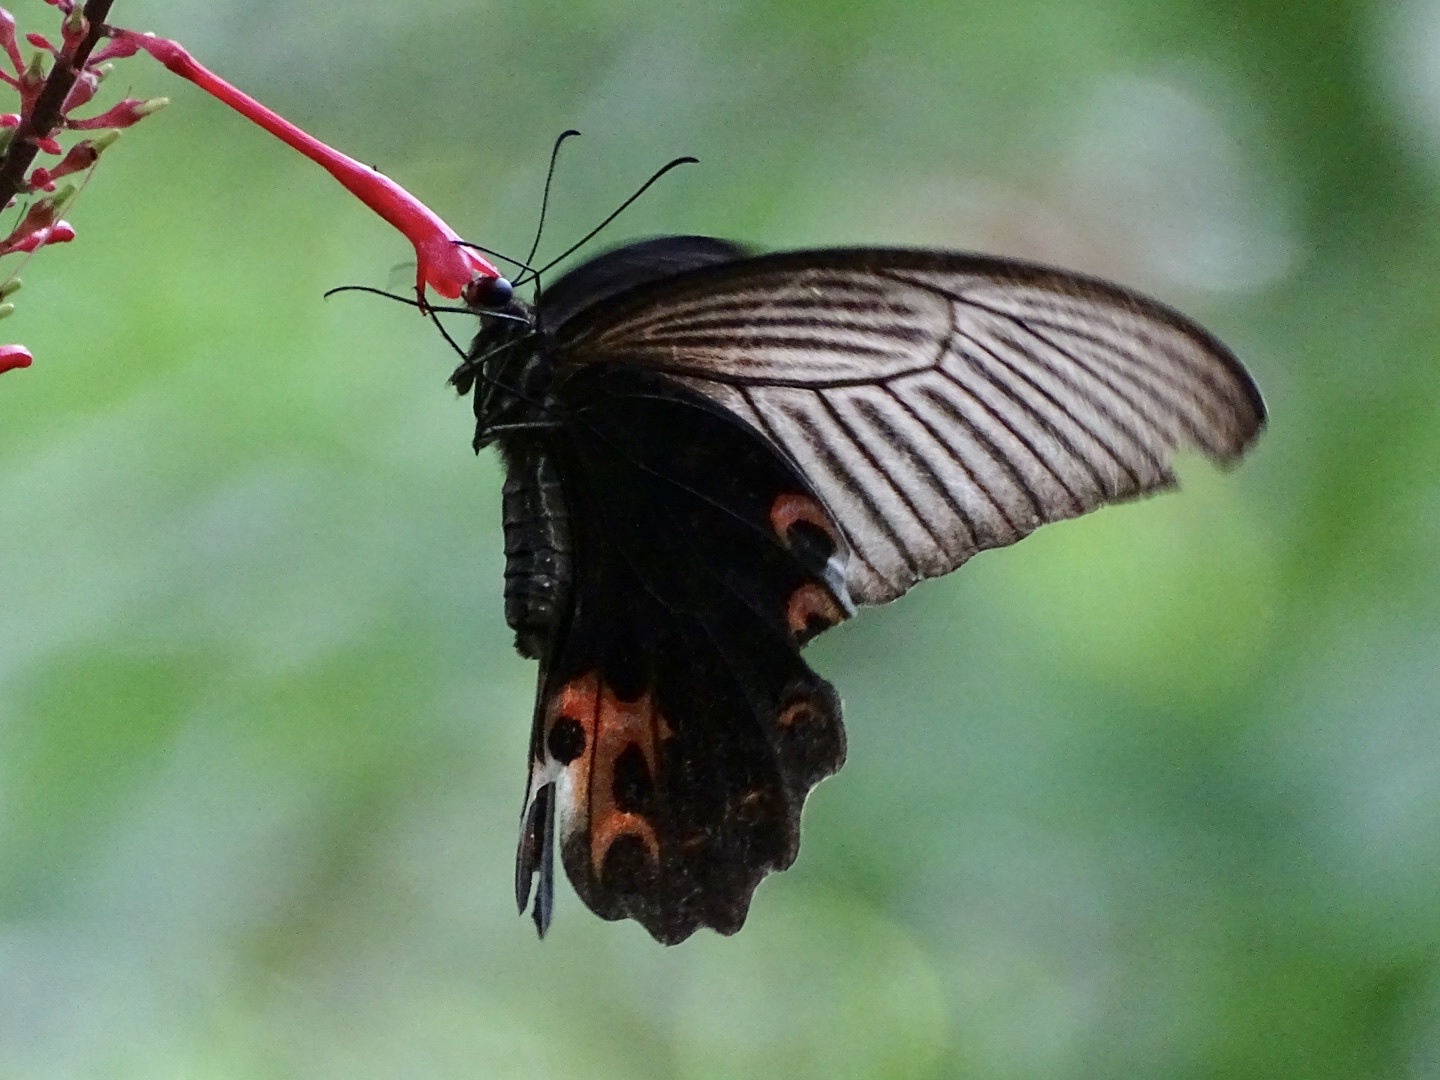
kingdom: Animalia
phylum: Arthropoda
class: Insecta
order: Lepidoptera
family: Papilionidae
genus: Papilio
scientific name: Papilio protenor
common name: Spangle
